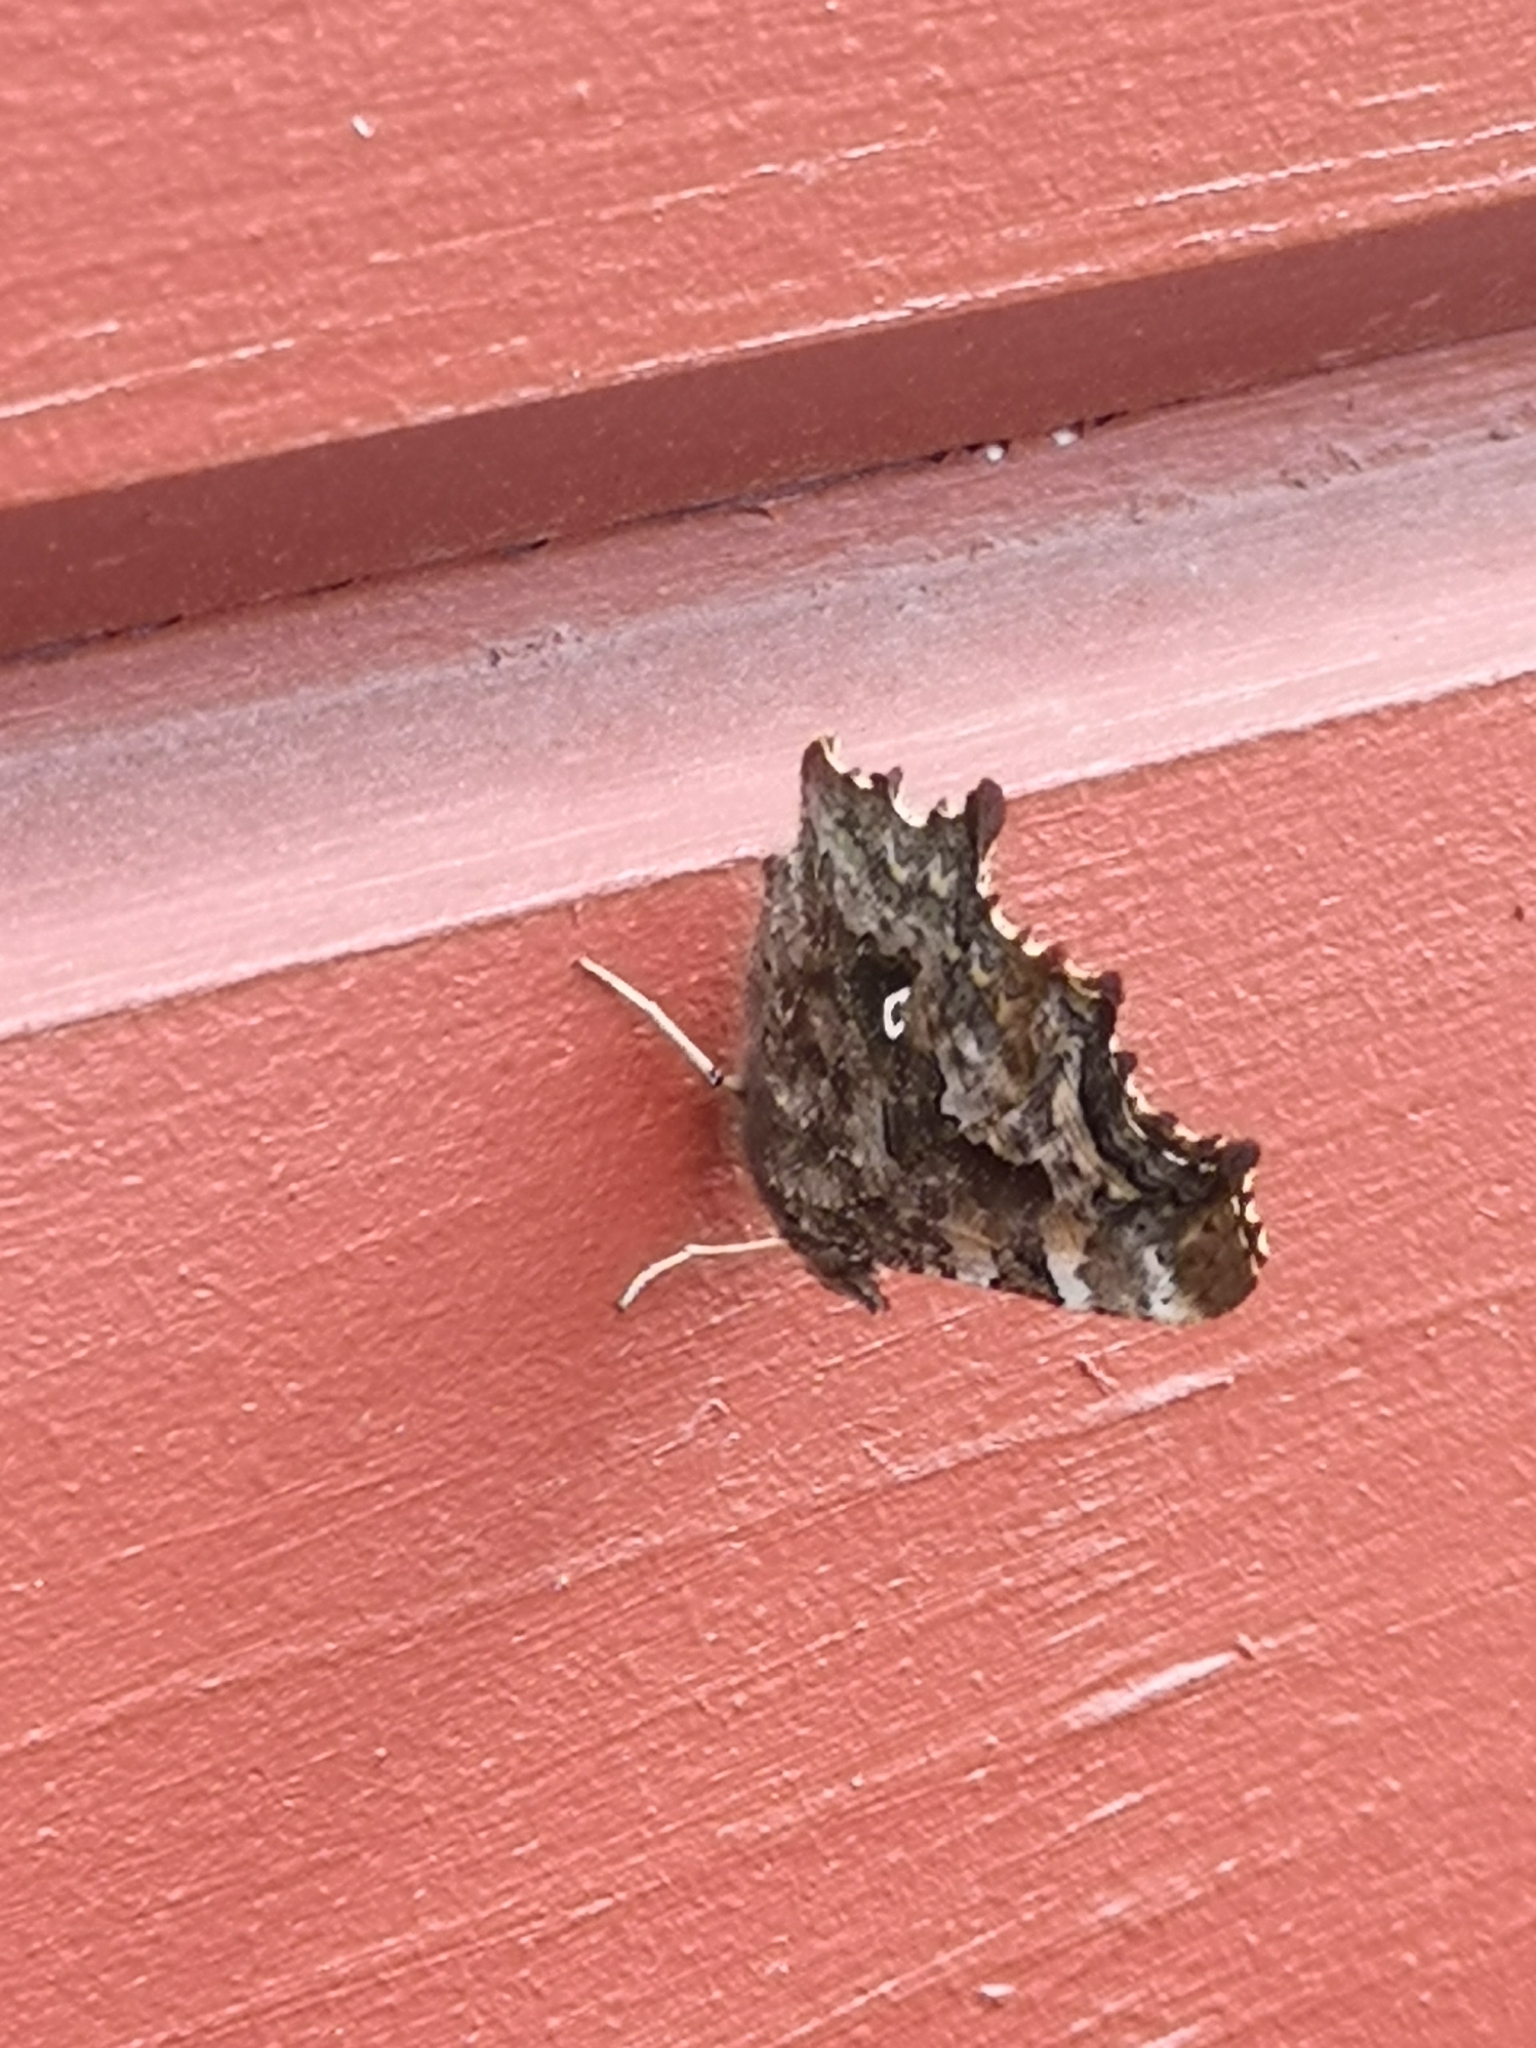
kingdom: Animalia
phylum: Arthropoda
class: Insecta
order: Lepidoptera
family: Nymphalidae
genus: Polygonia
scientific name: Polygonia c-album
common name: Comma
